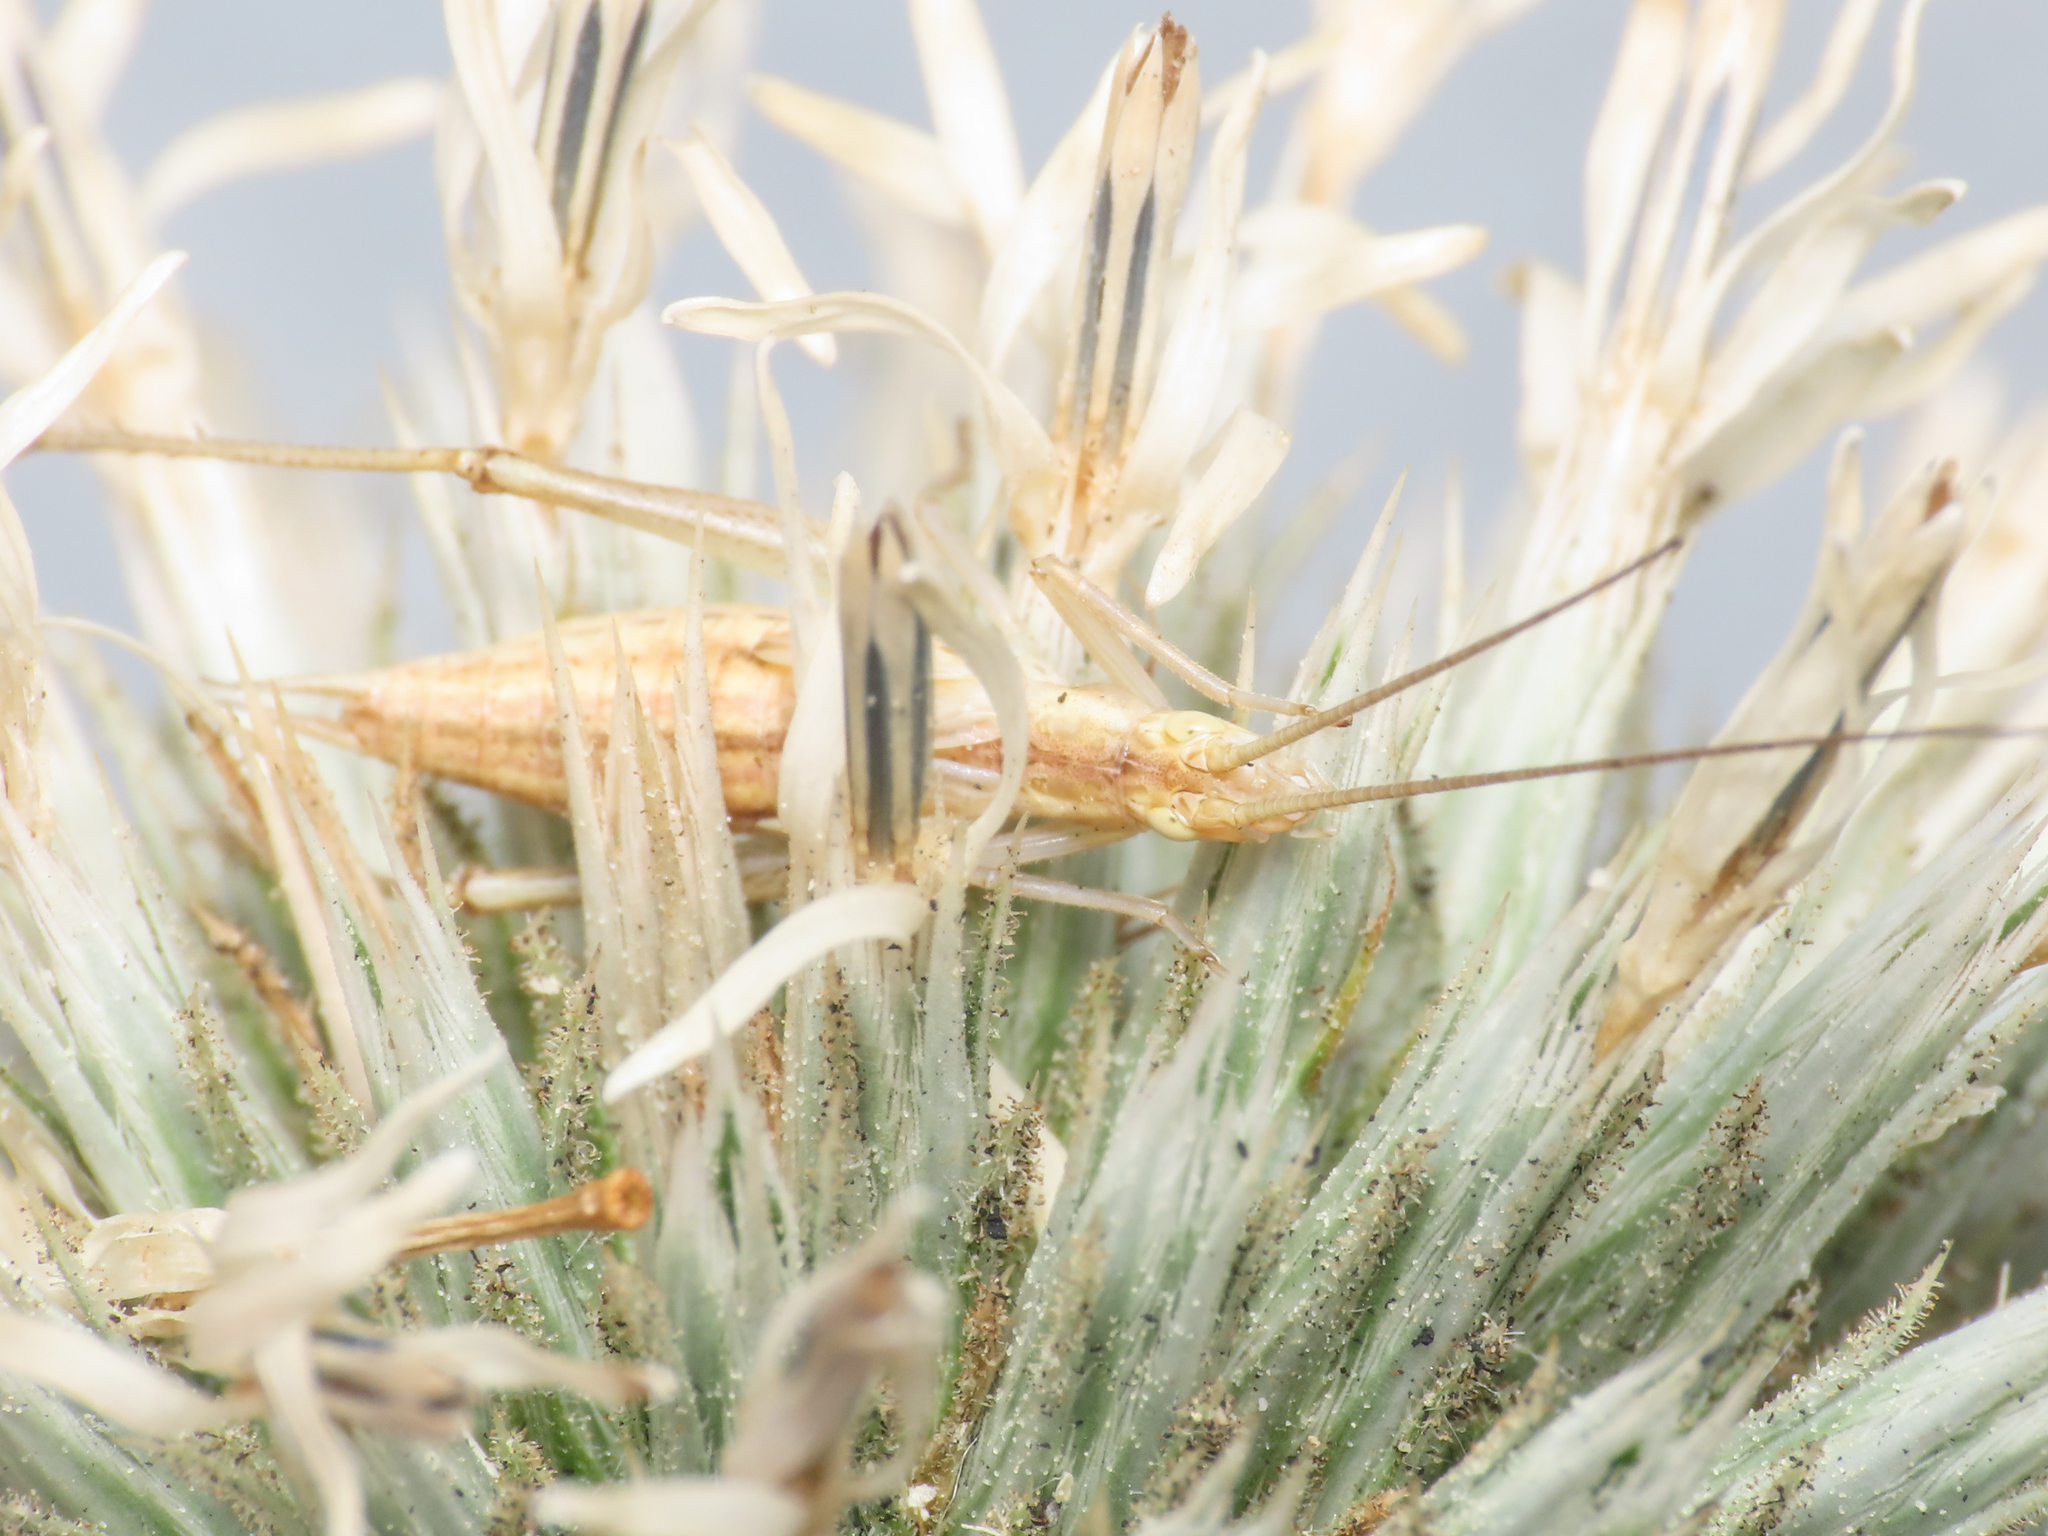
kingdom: Animalia
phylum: Arthropoda
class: Insecta
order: Orthoptera
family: Gryllidae
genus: Oecanthus
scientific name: Oecanthus pellucens
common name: Tree-cricket
